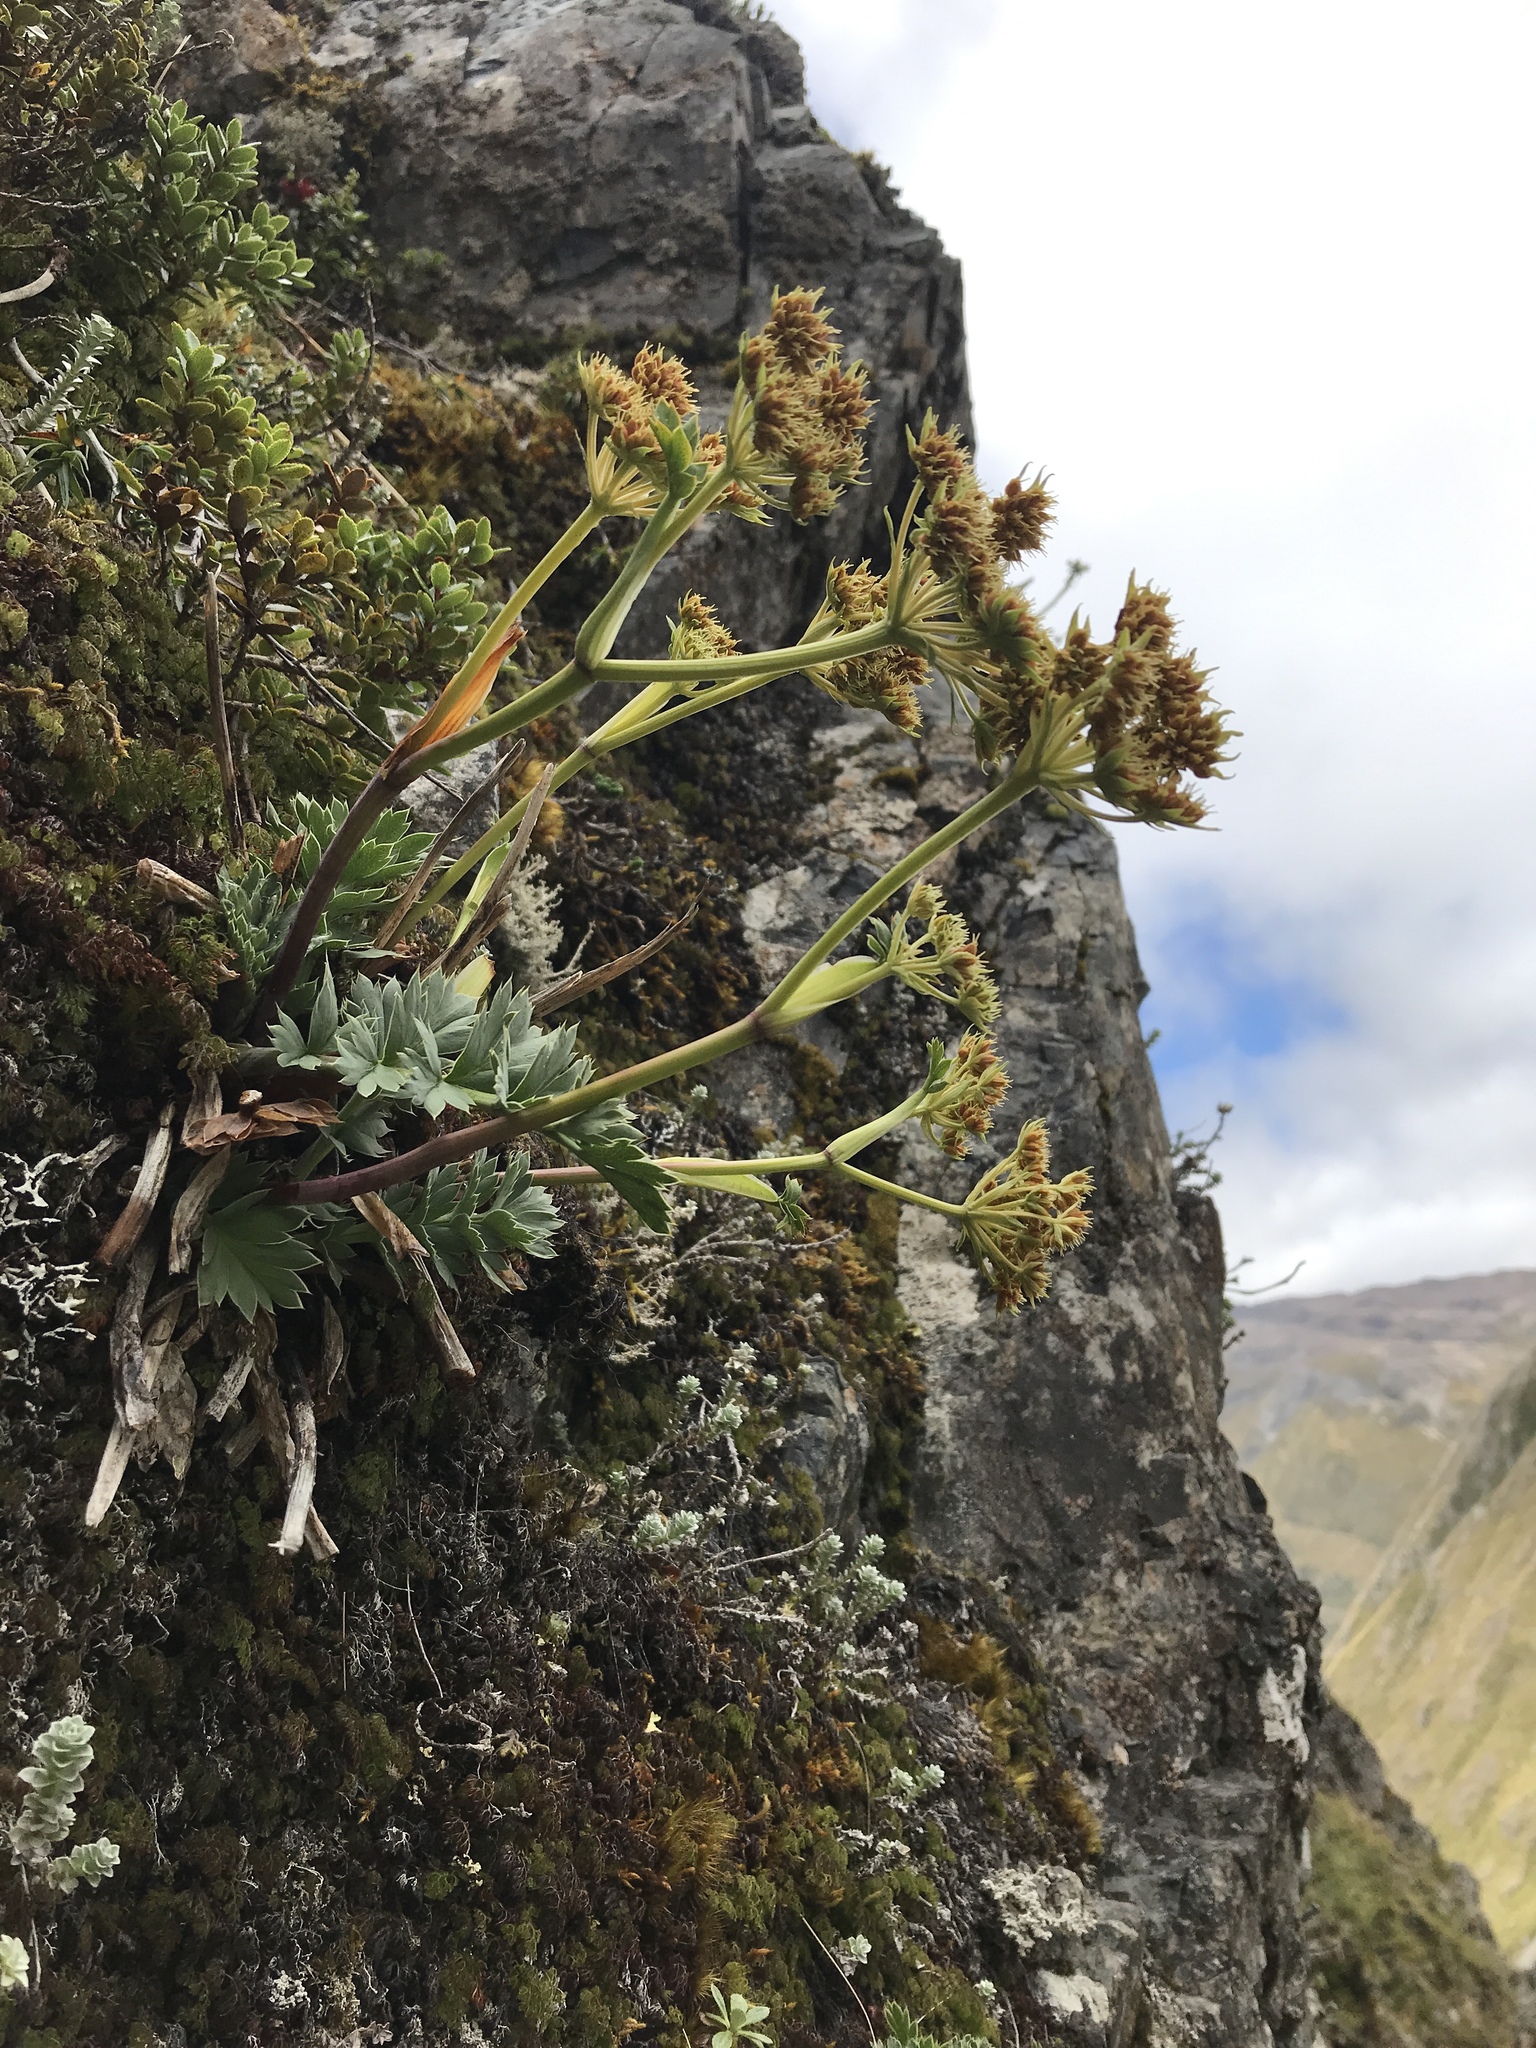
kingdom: Plantae
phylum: Tracheophyta
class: Magnoliopsida
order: Apiales
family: Apiaceae
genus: Anisotome
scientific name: Anisotome pilifera
